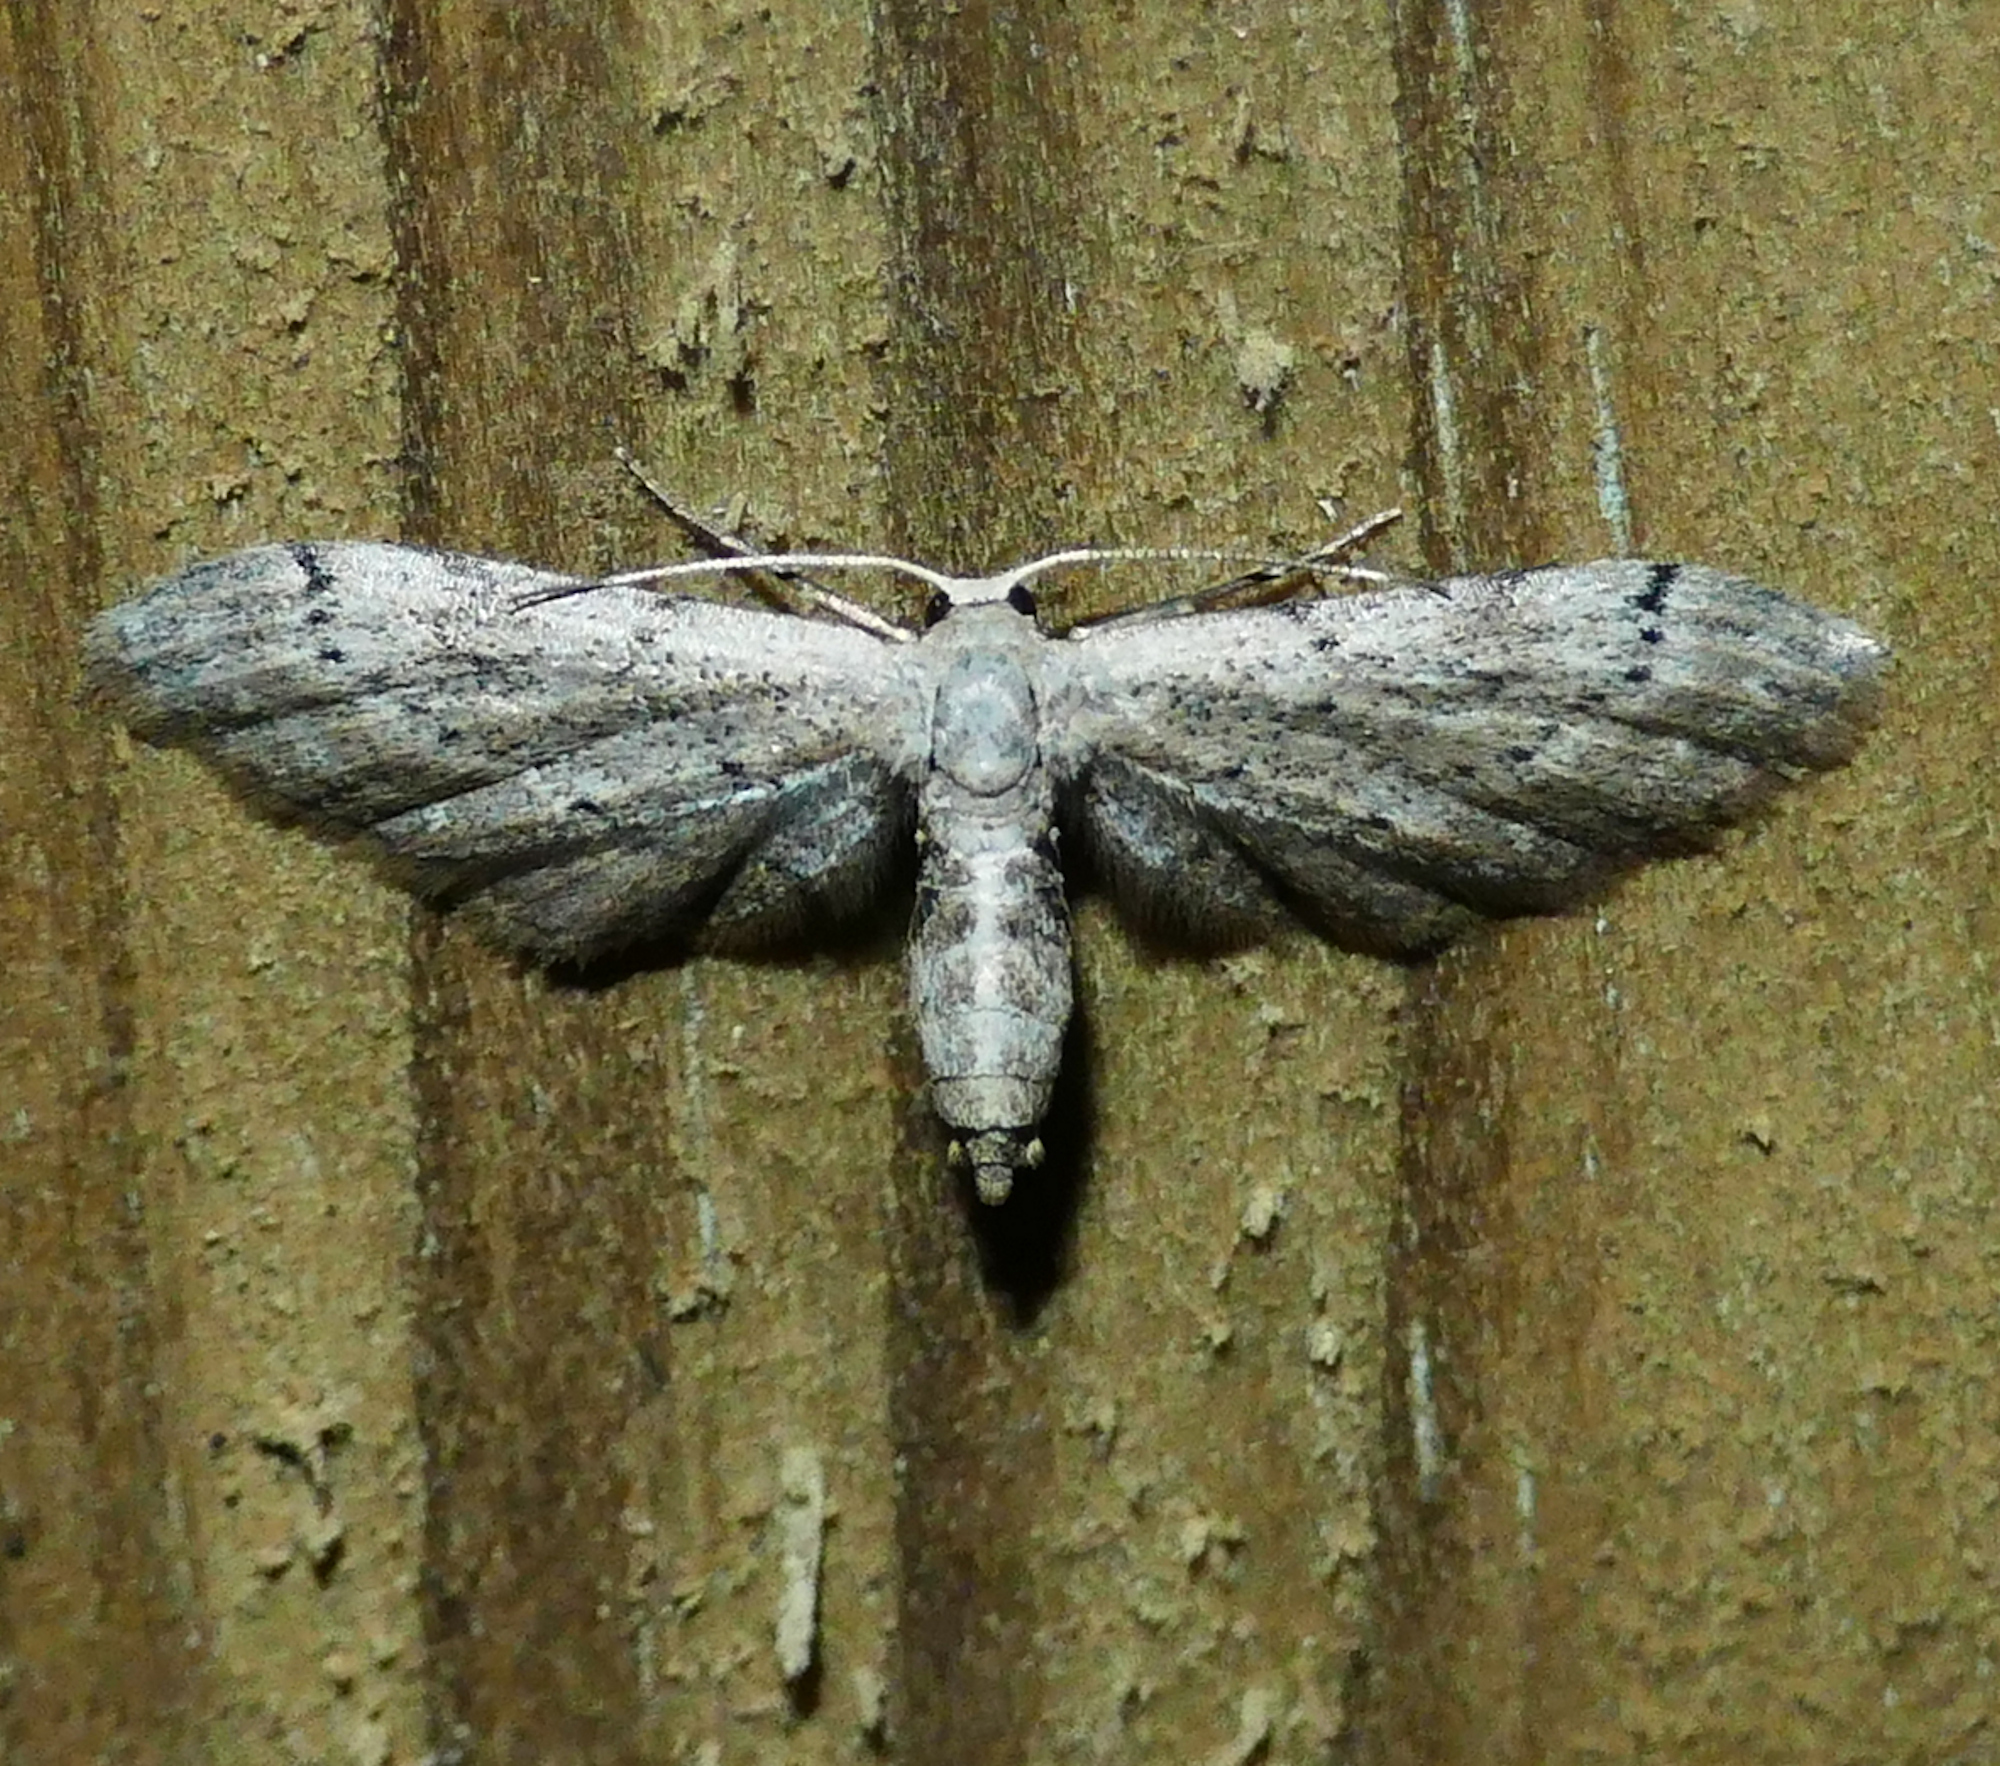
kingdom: Animalia
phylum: Arthropoda
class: Insecta
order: Lepidoptera
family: Geometridae
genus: Eumacrodes
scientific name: Eumacrodes yponomeutaria
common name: Slender geometrid moth
